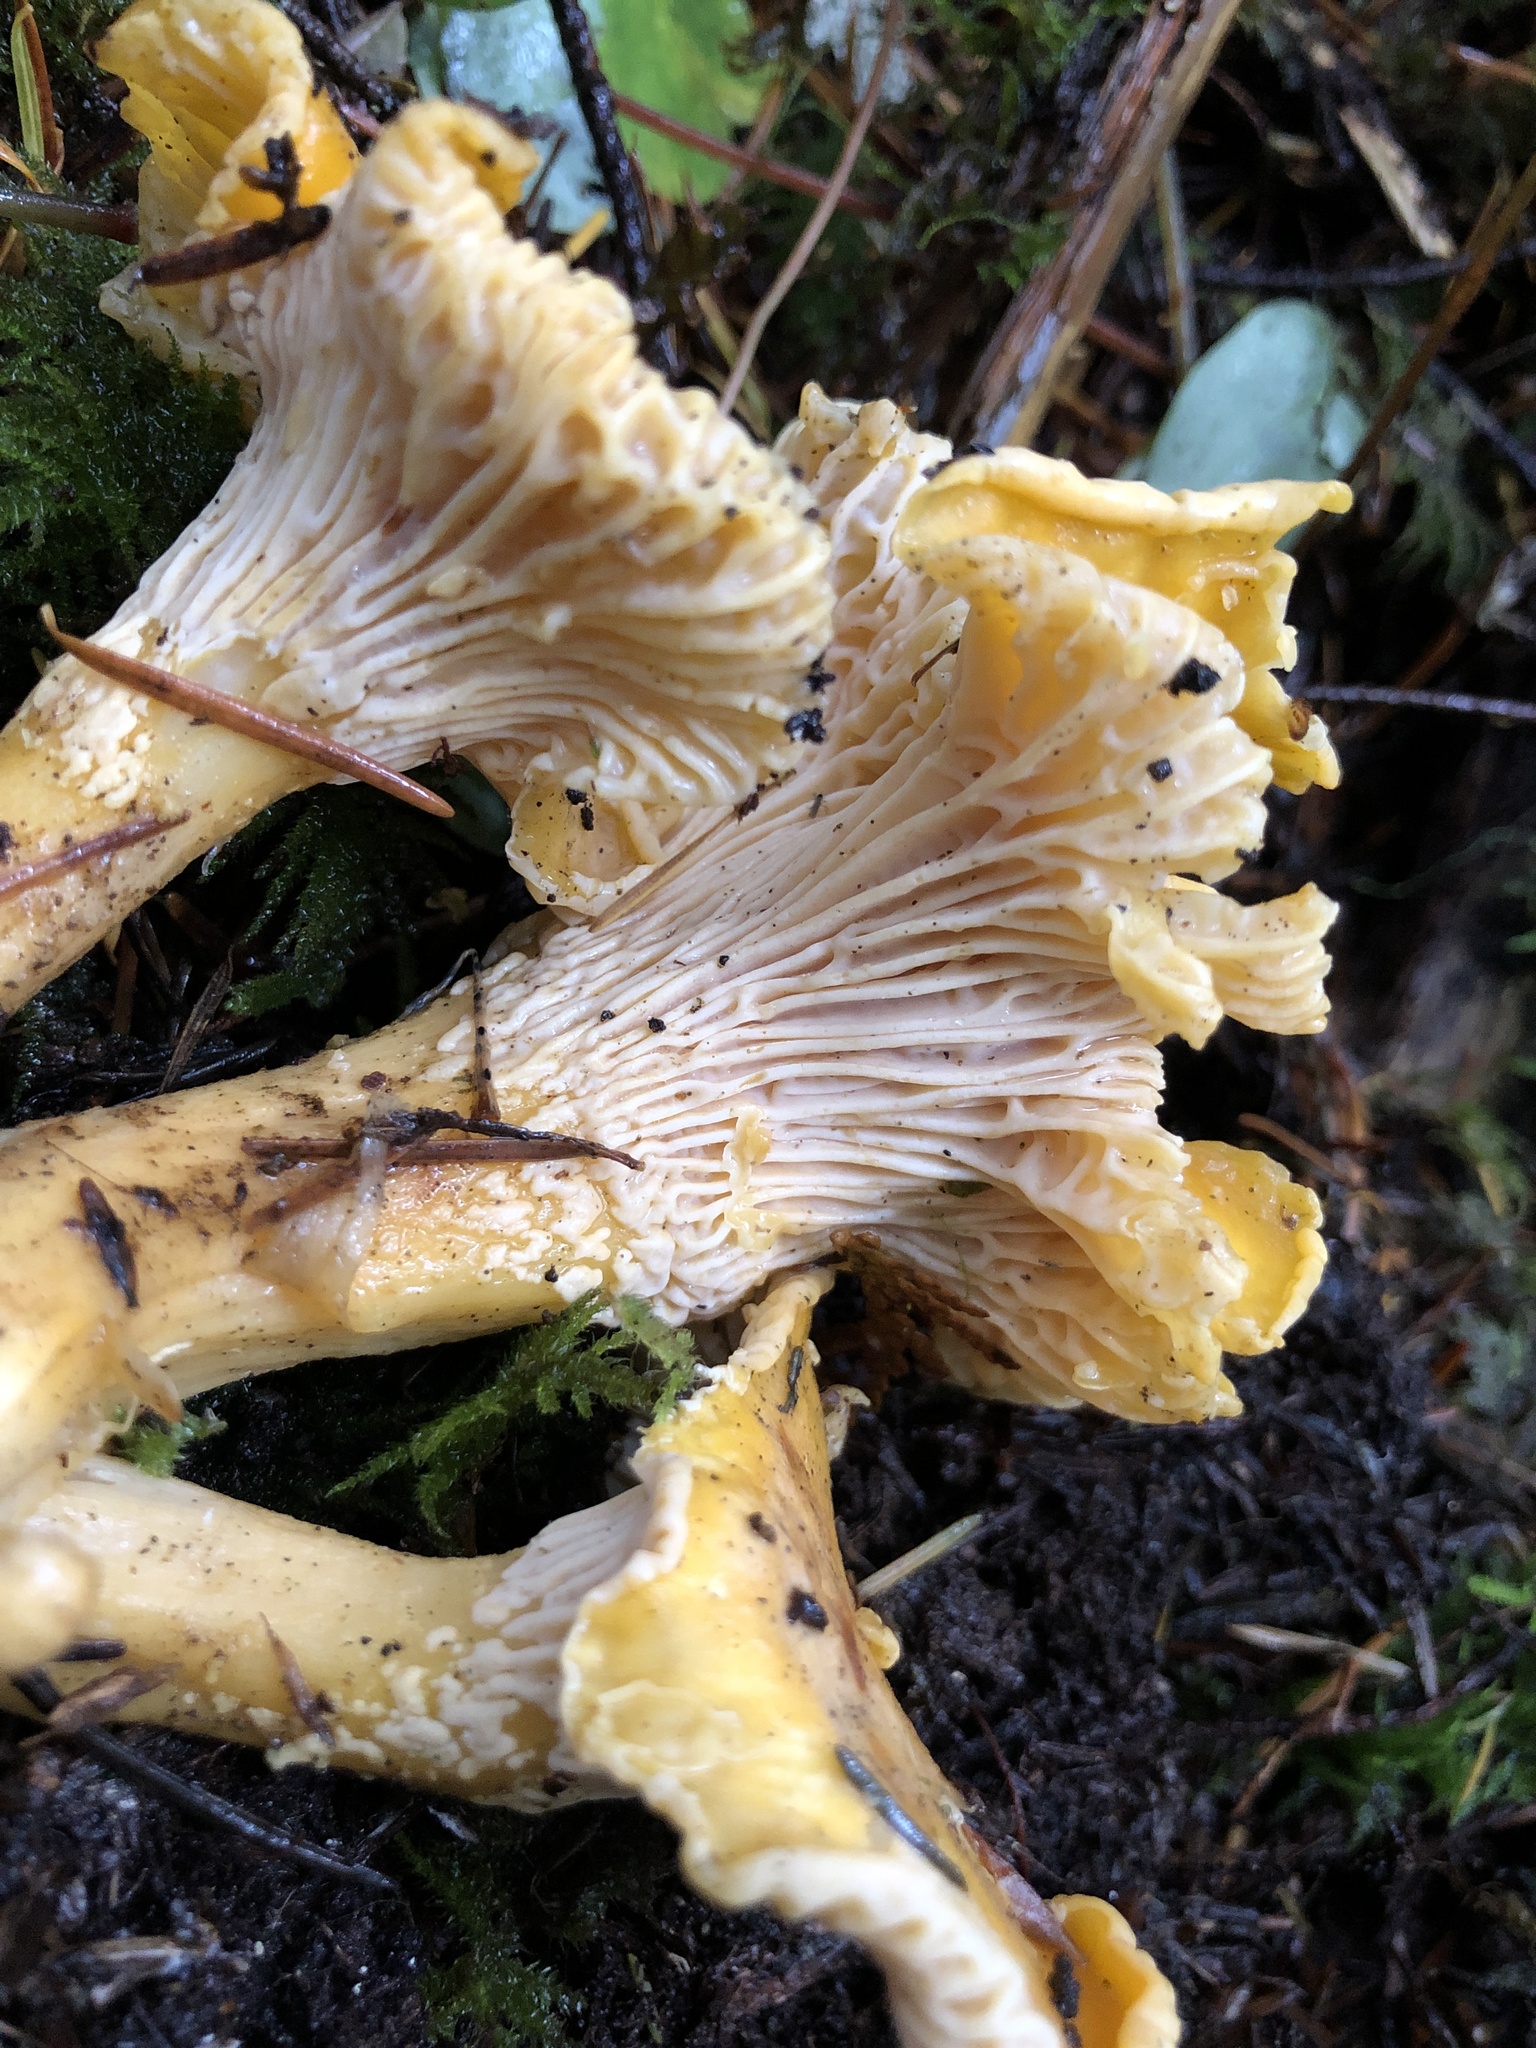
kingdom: Fungi
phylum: Basidiomycota
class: Agaricomycetes
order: Cantharellales
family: Hydnaceae
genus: Cantharellus
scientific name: Cantharellus formosus
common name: Pacific golden chanterelle
